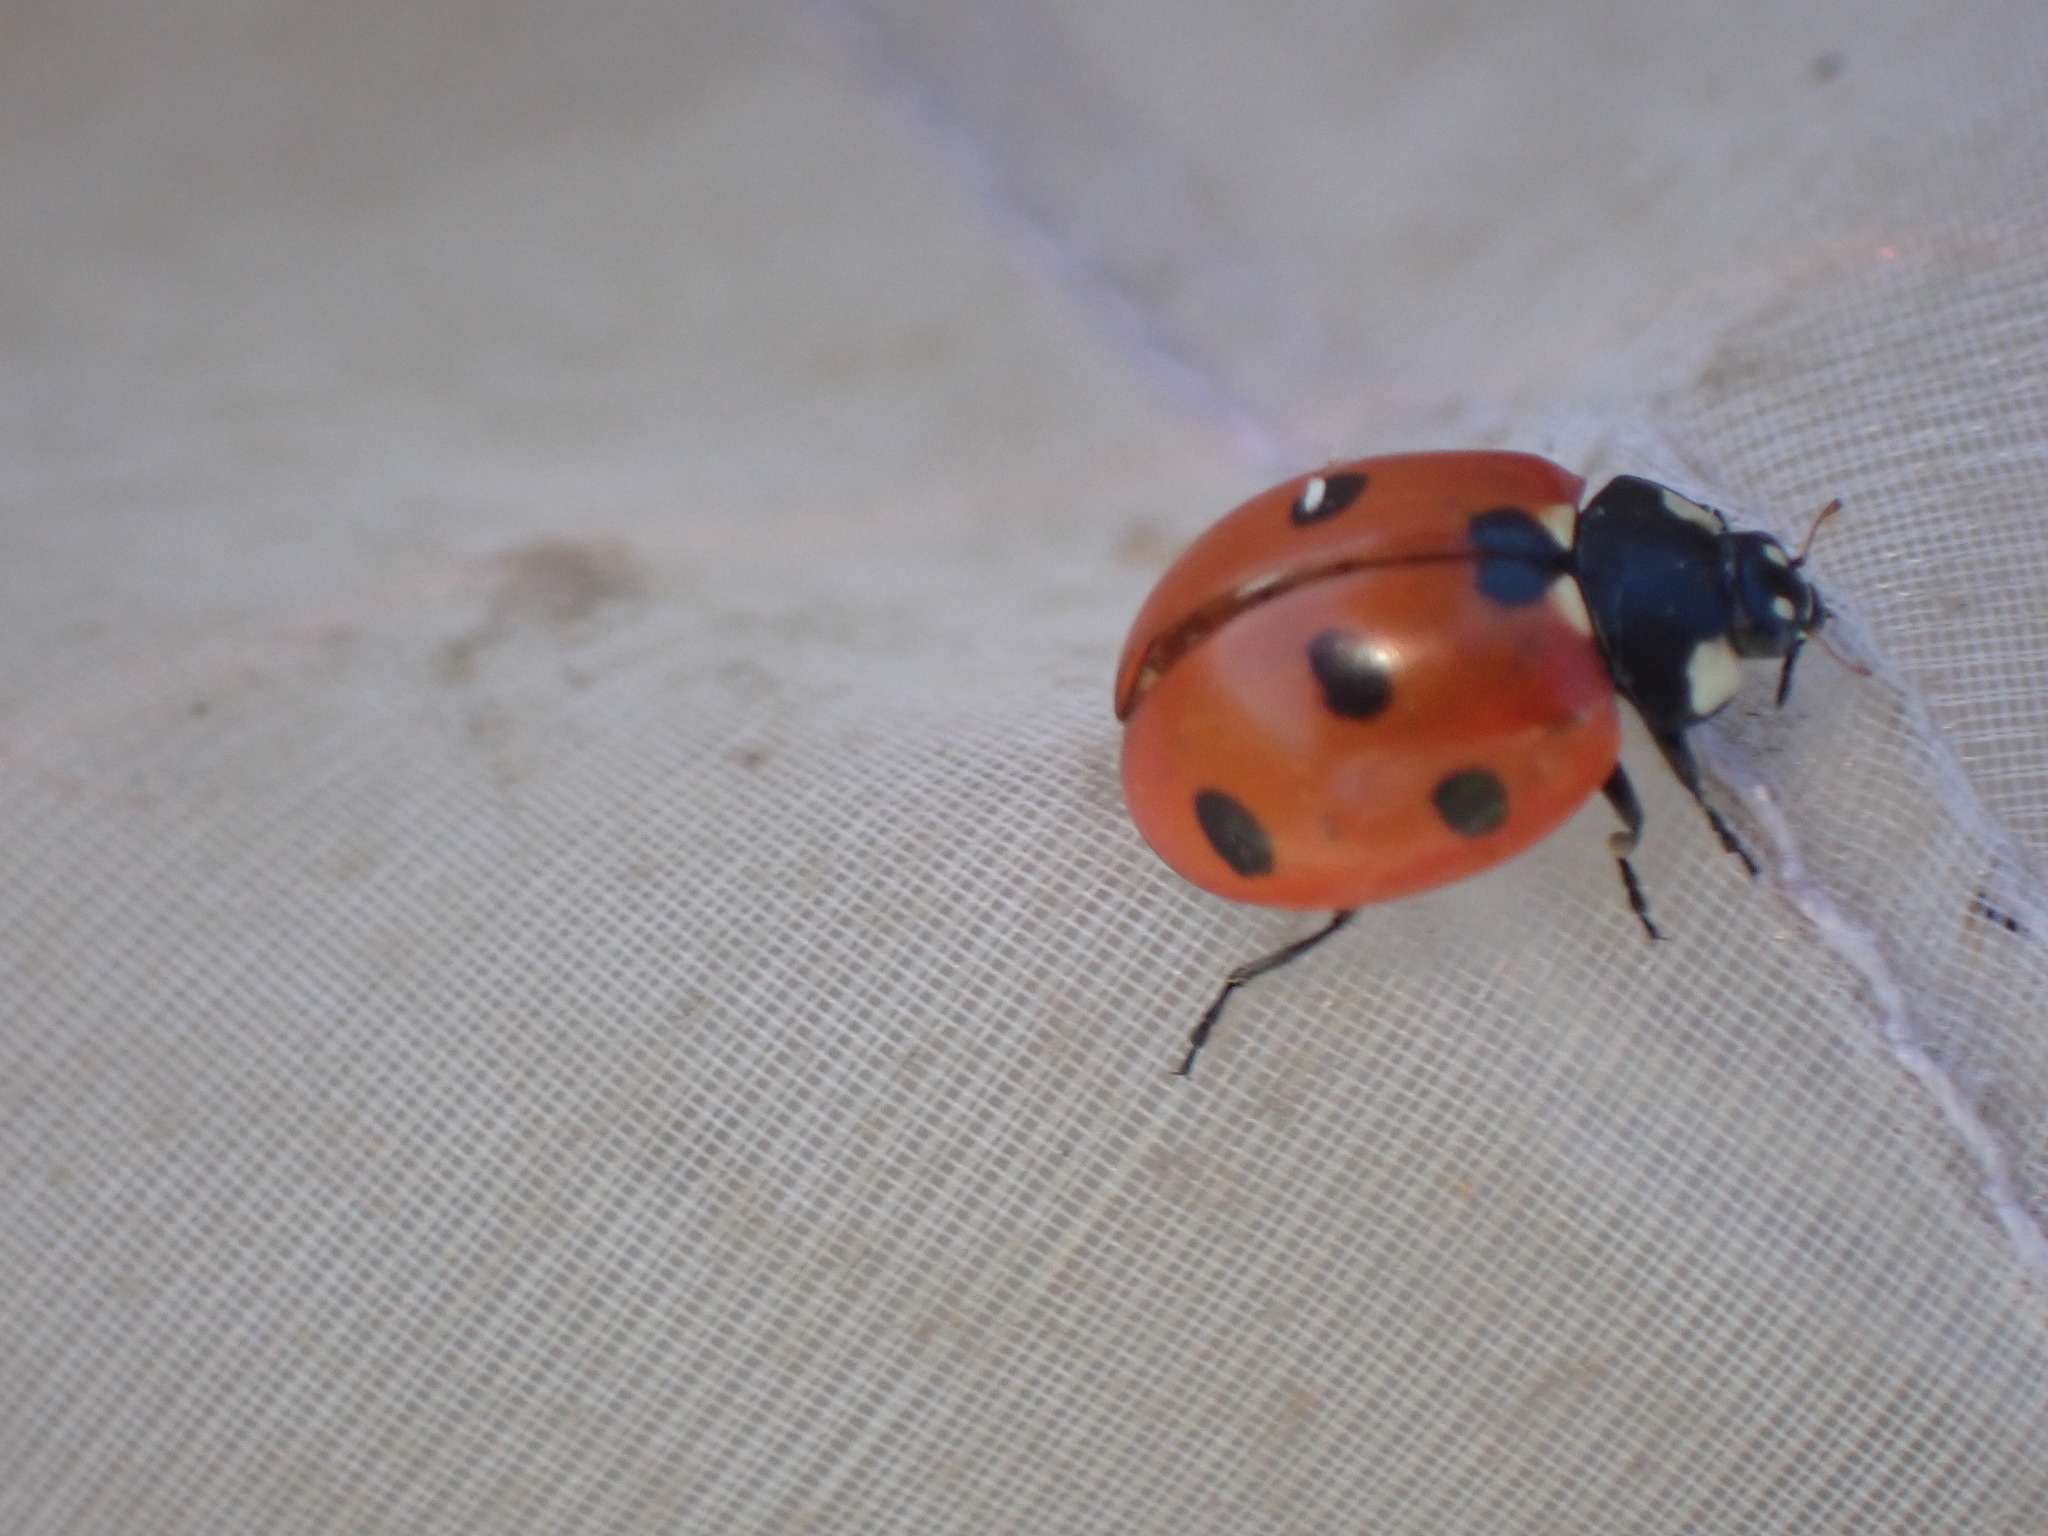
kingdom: Animalia
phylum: Arthropoda
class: Insecta
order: Coleoptera
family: Coccinellidae
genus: Coccinella
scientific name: Coccinella septempunctata
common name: Sevenspotted lady beetle
